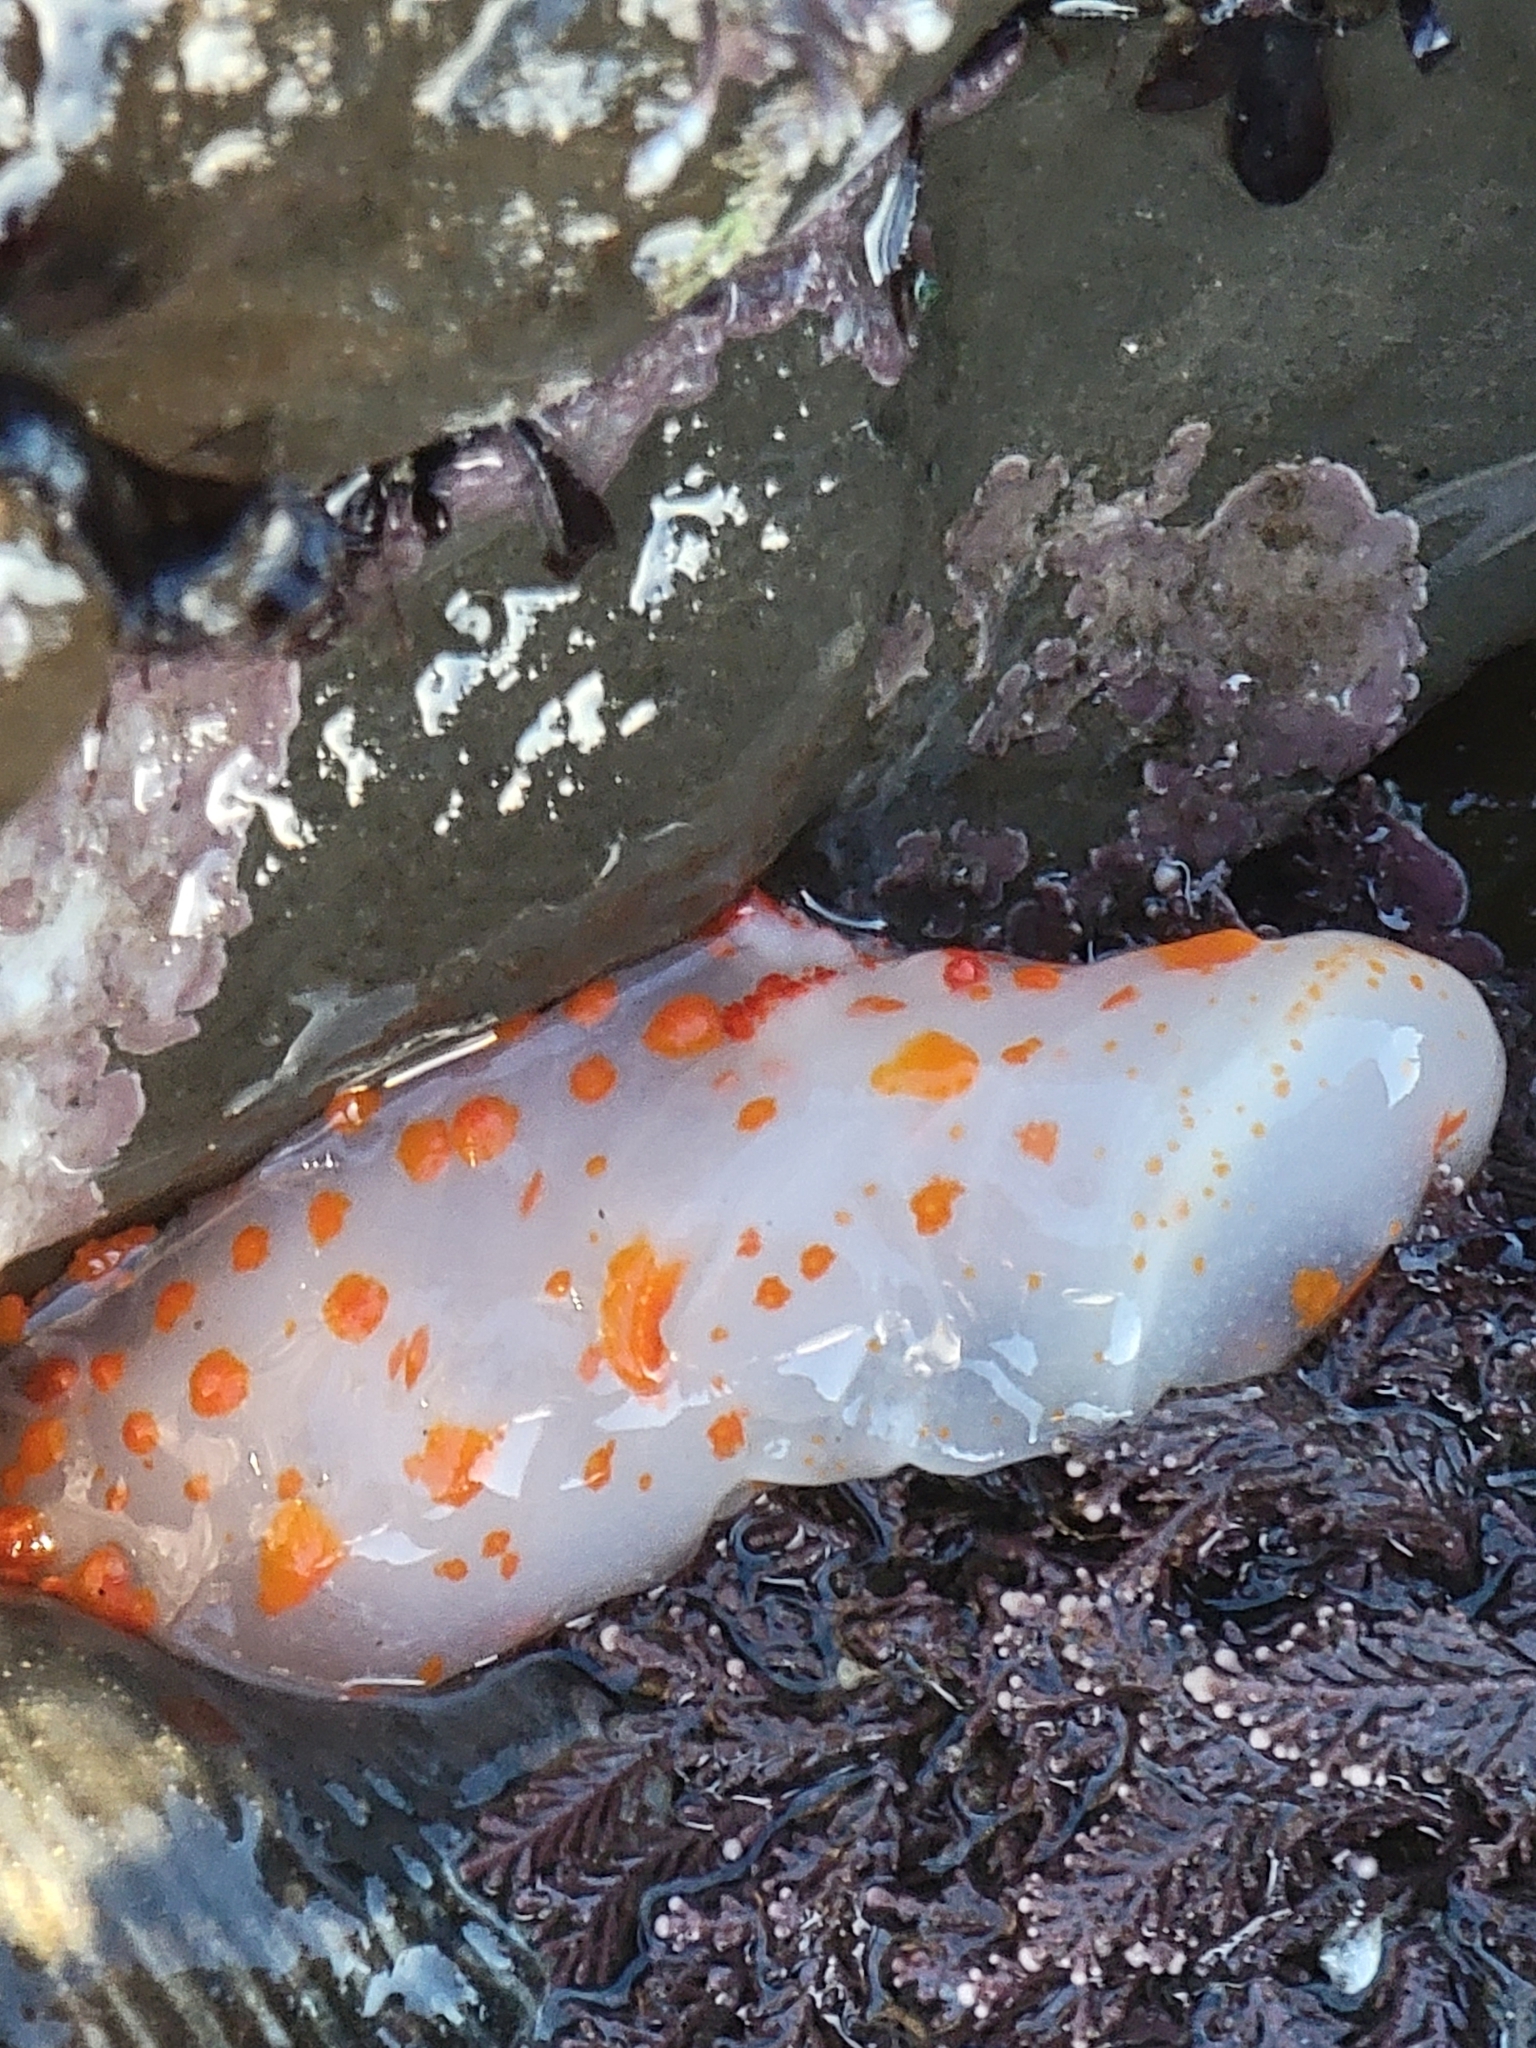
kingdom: Animalia
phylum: Mollusca
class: Gastropoda
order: Nudibranchia
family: Polyceridae
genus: Triopha
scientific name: Triopha catalinae
